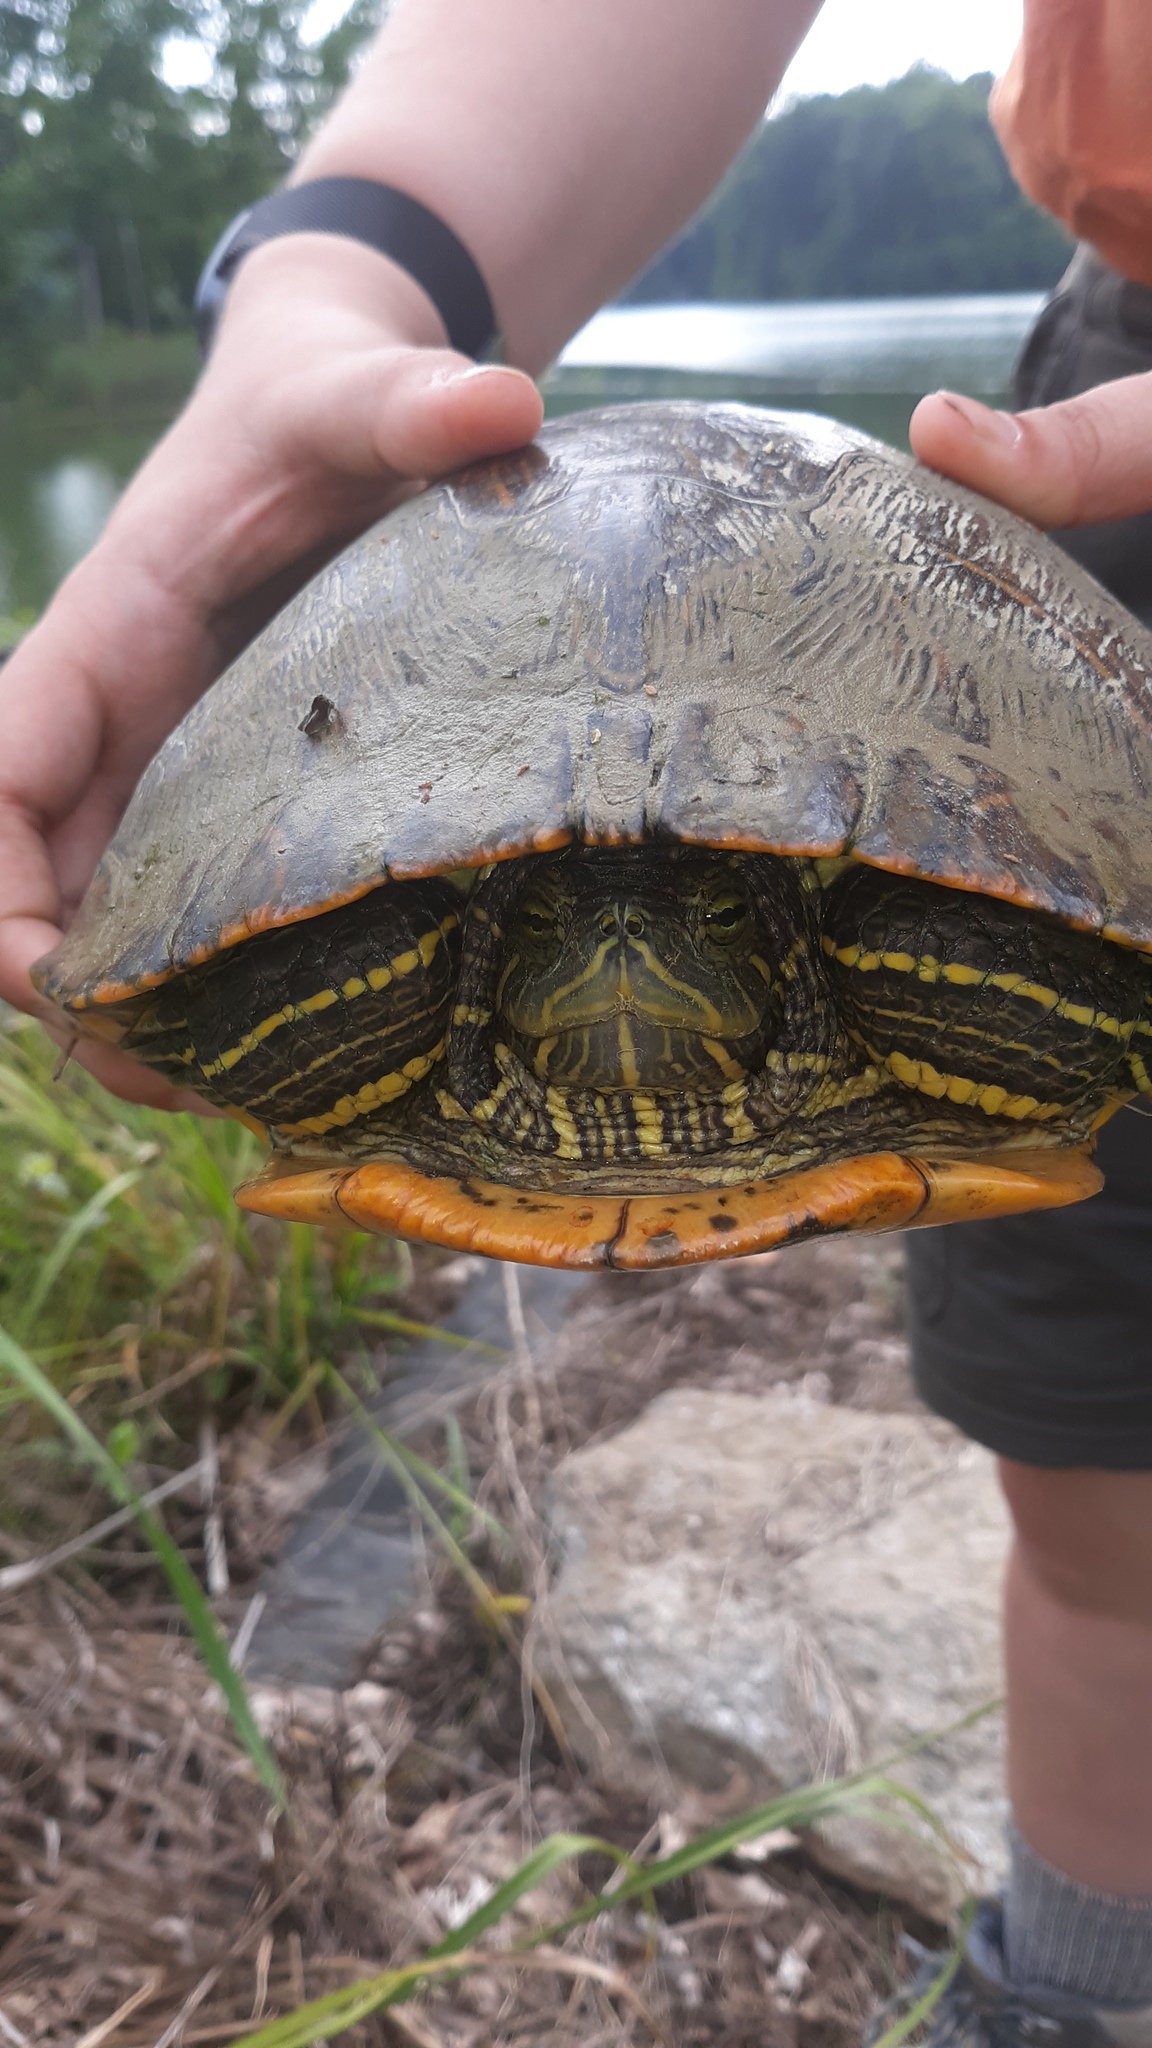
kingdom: Animalia
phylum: Chordata
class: Testudines
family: Emydidae
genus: Trachemys
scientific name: Trachemys scripta
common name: Slider
